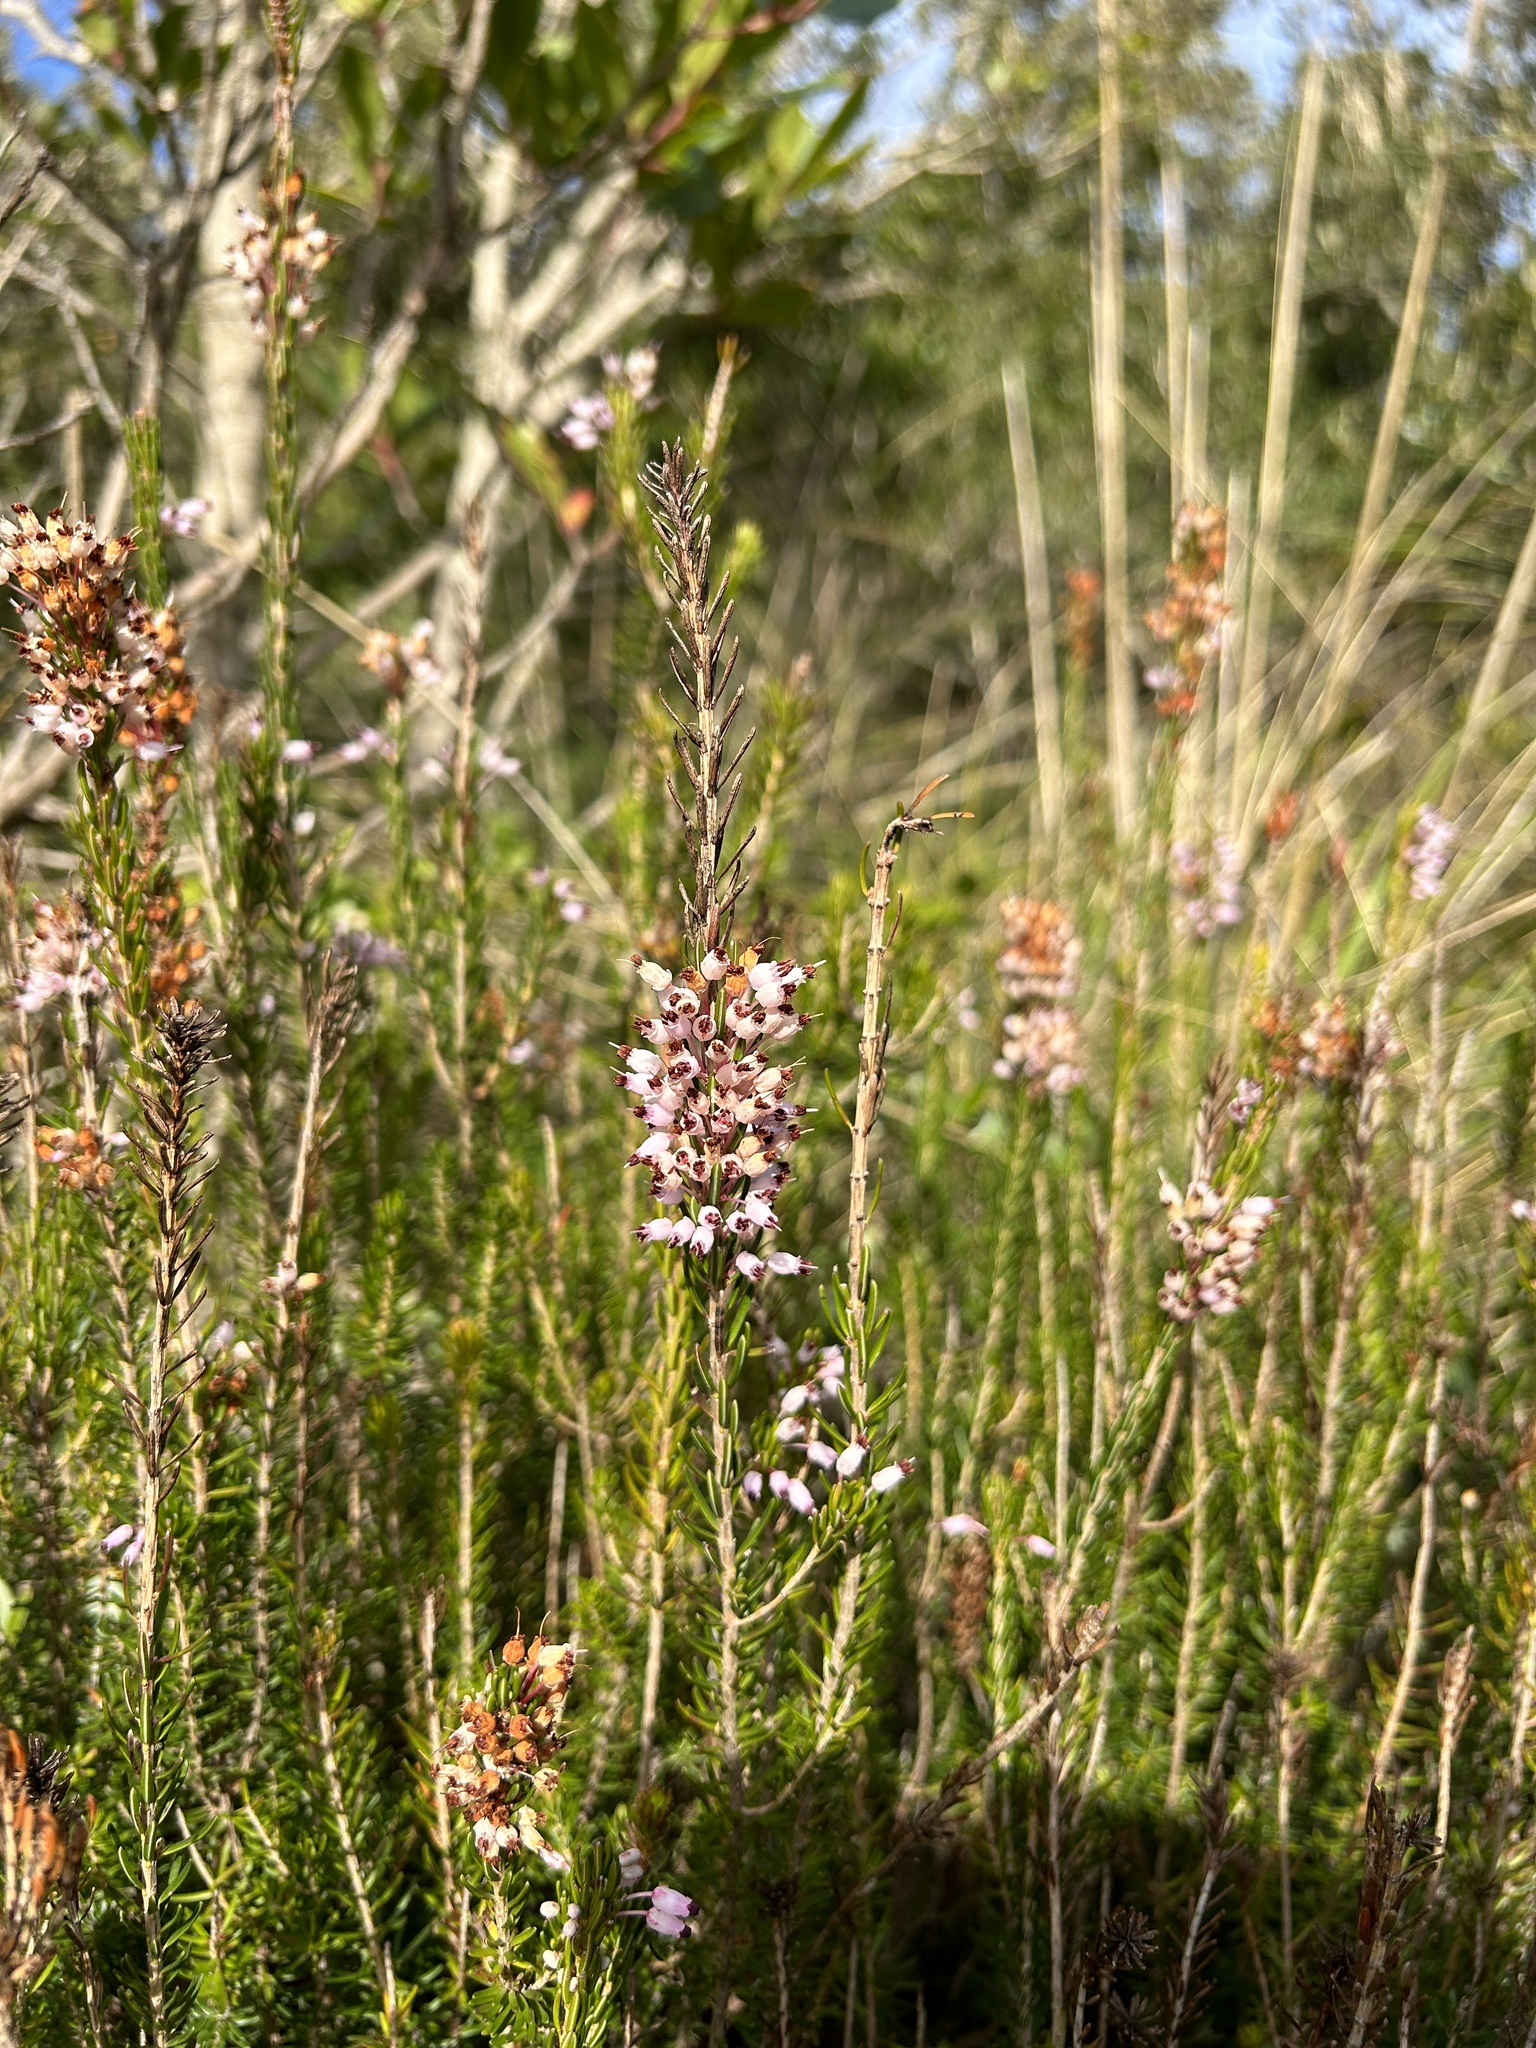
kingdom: Plantae
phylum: Tracheophyta
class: Magnoliopsida
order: Ericales
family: Ericaceae
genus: Erica
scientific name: Erica multiflora
